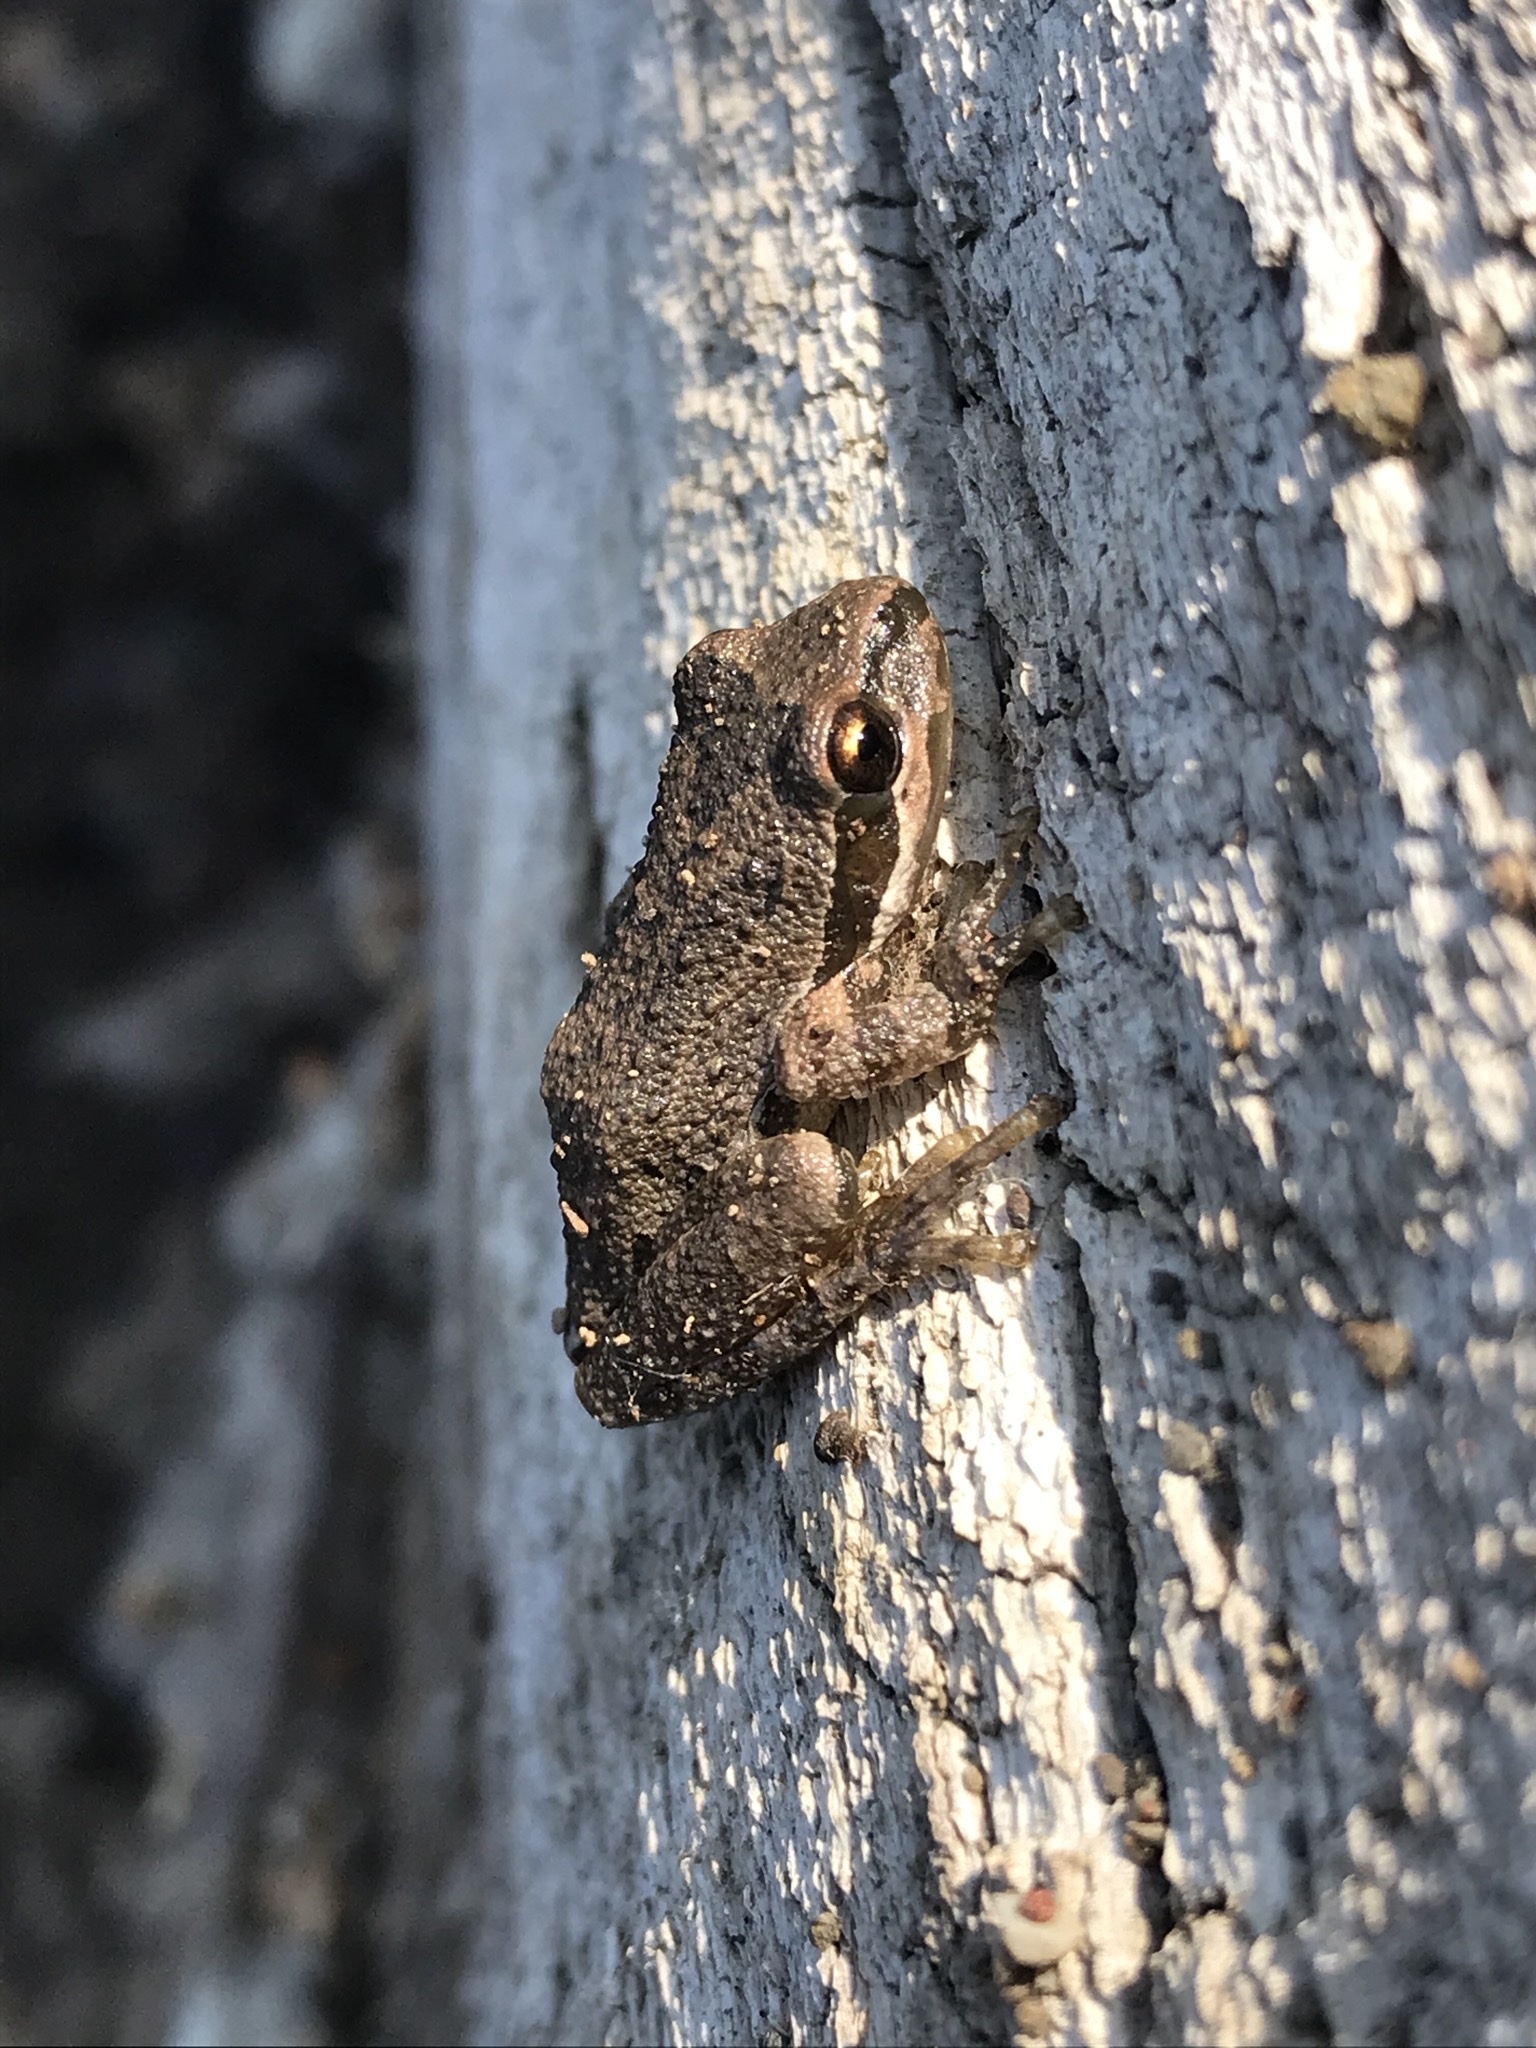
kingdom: Animalia
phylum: Chordata
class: Amphibia
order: Anura
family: Hylidae
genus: Pseudacris
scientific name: Pseudacris regilla
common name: Pacific chorus frog
